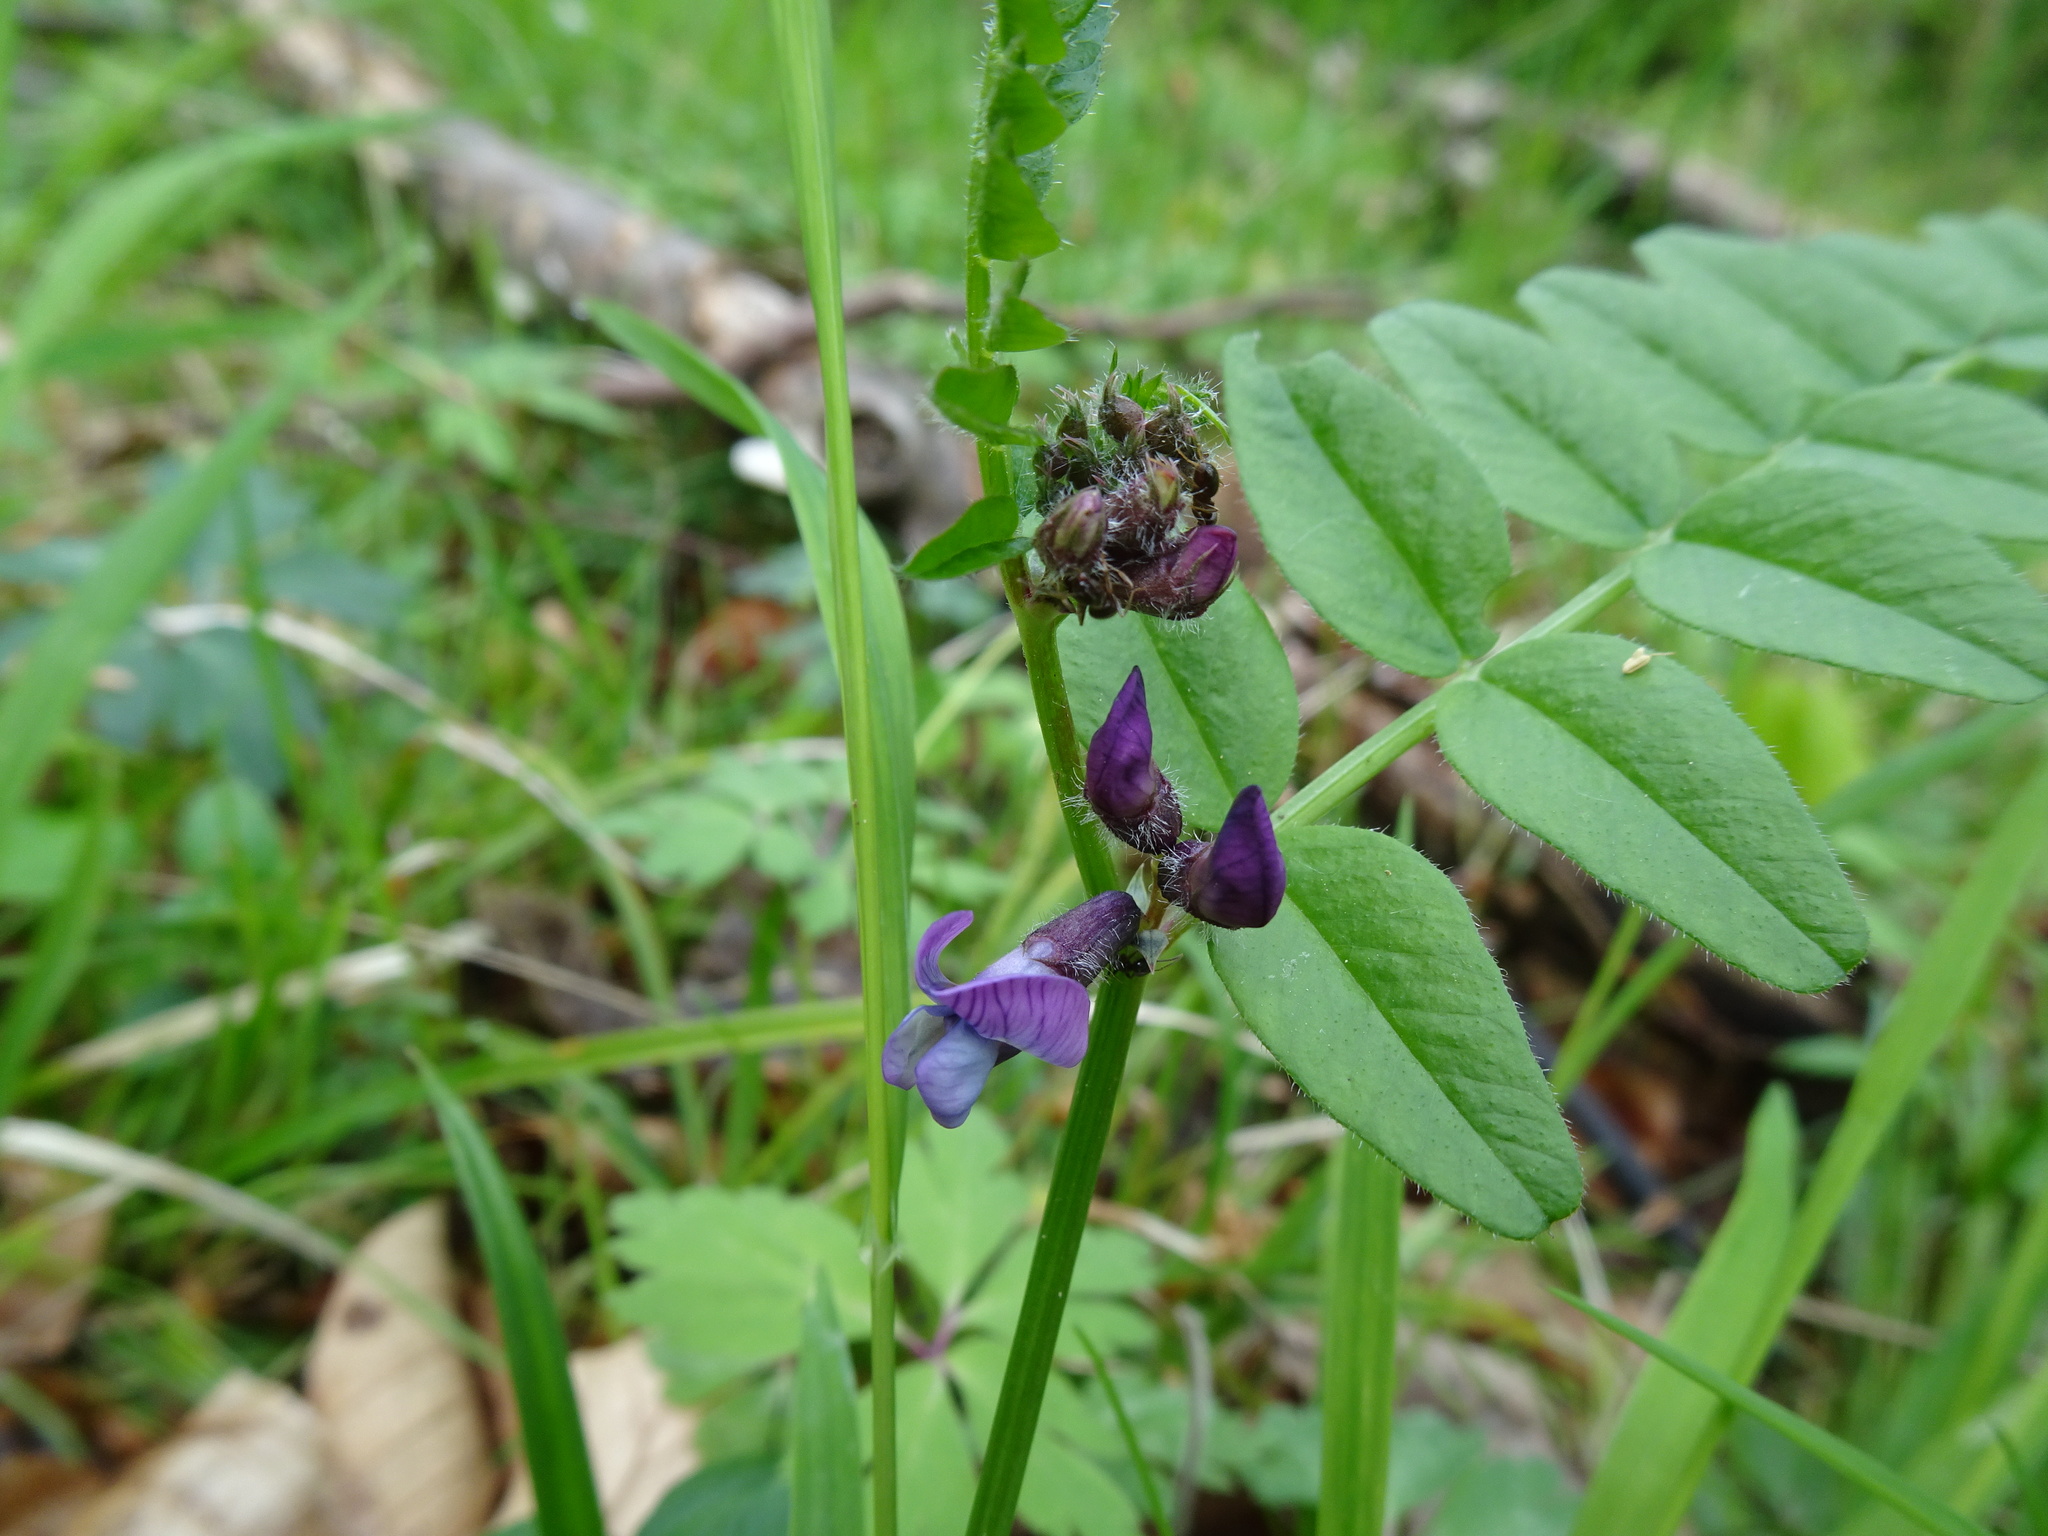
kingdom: Plantae
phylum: Tracheophyta
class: Magnoliopsida
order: Fabales
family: Fabaceae
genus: Vicia
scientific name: Vicia sepium
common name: Bush vetch
